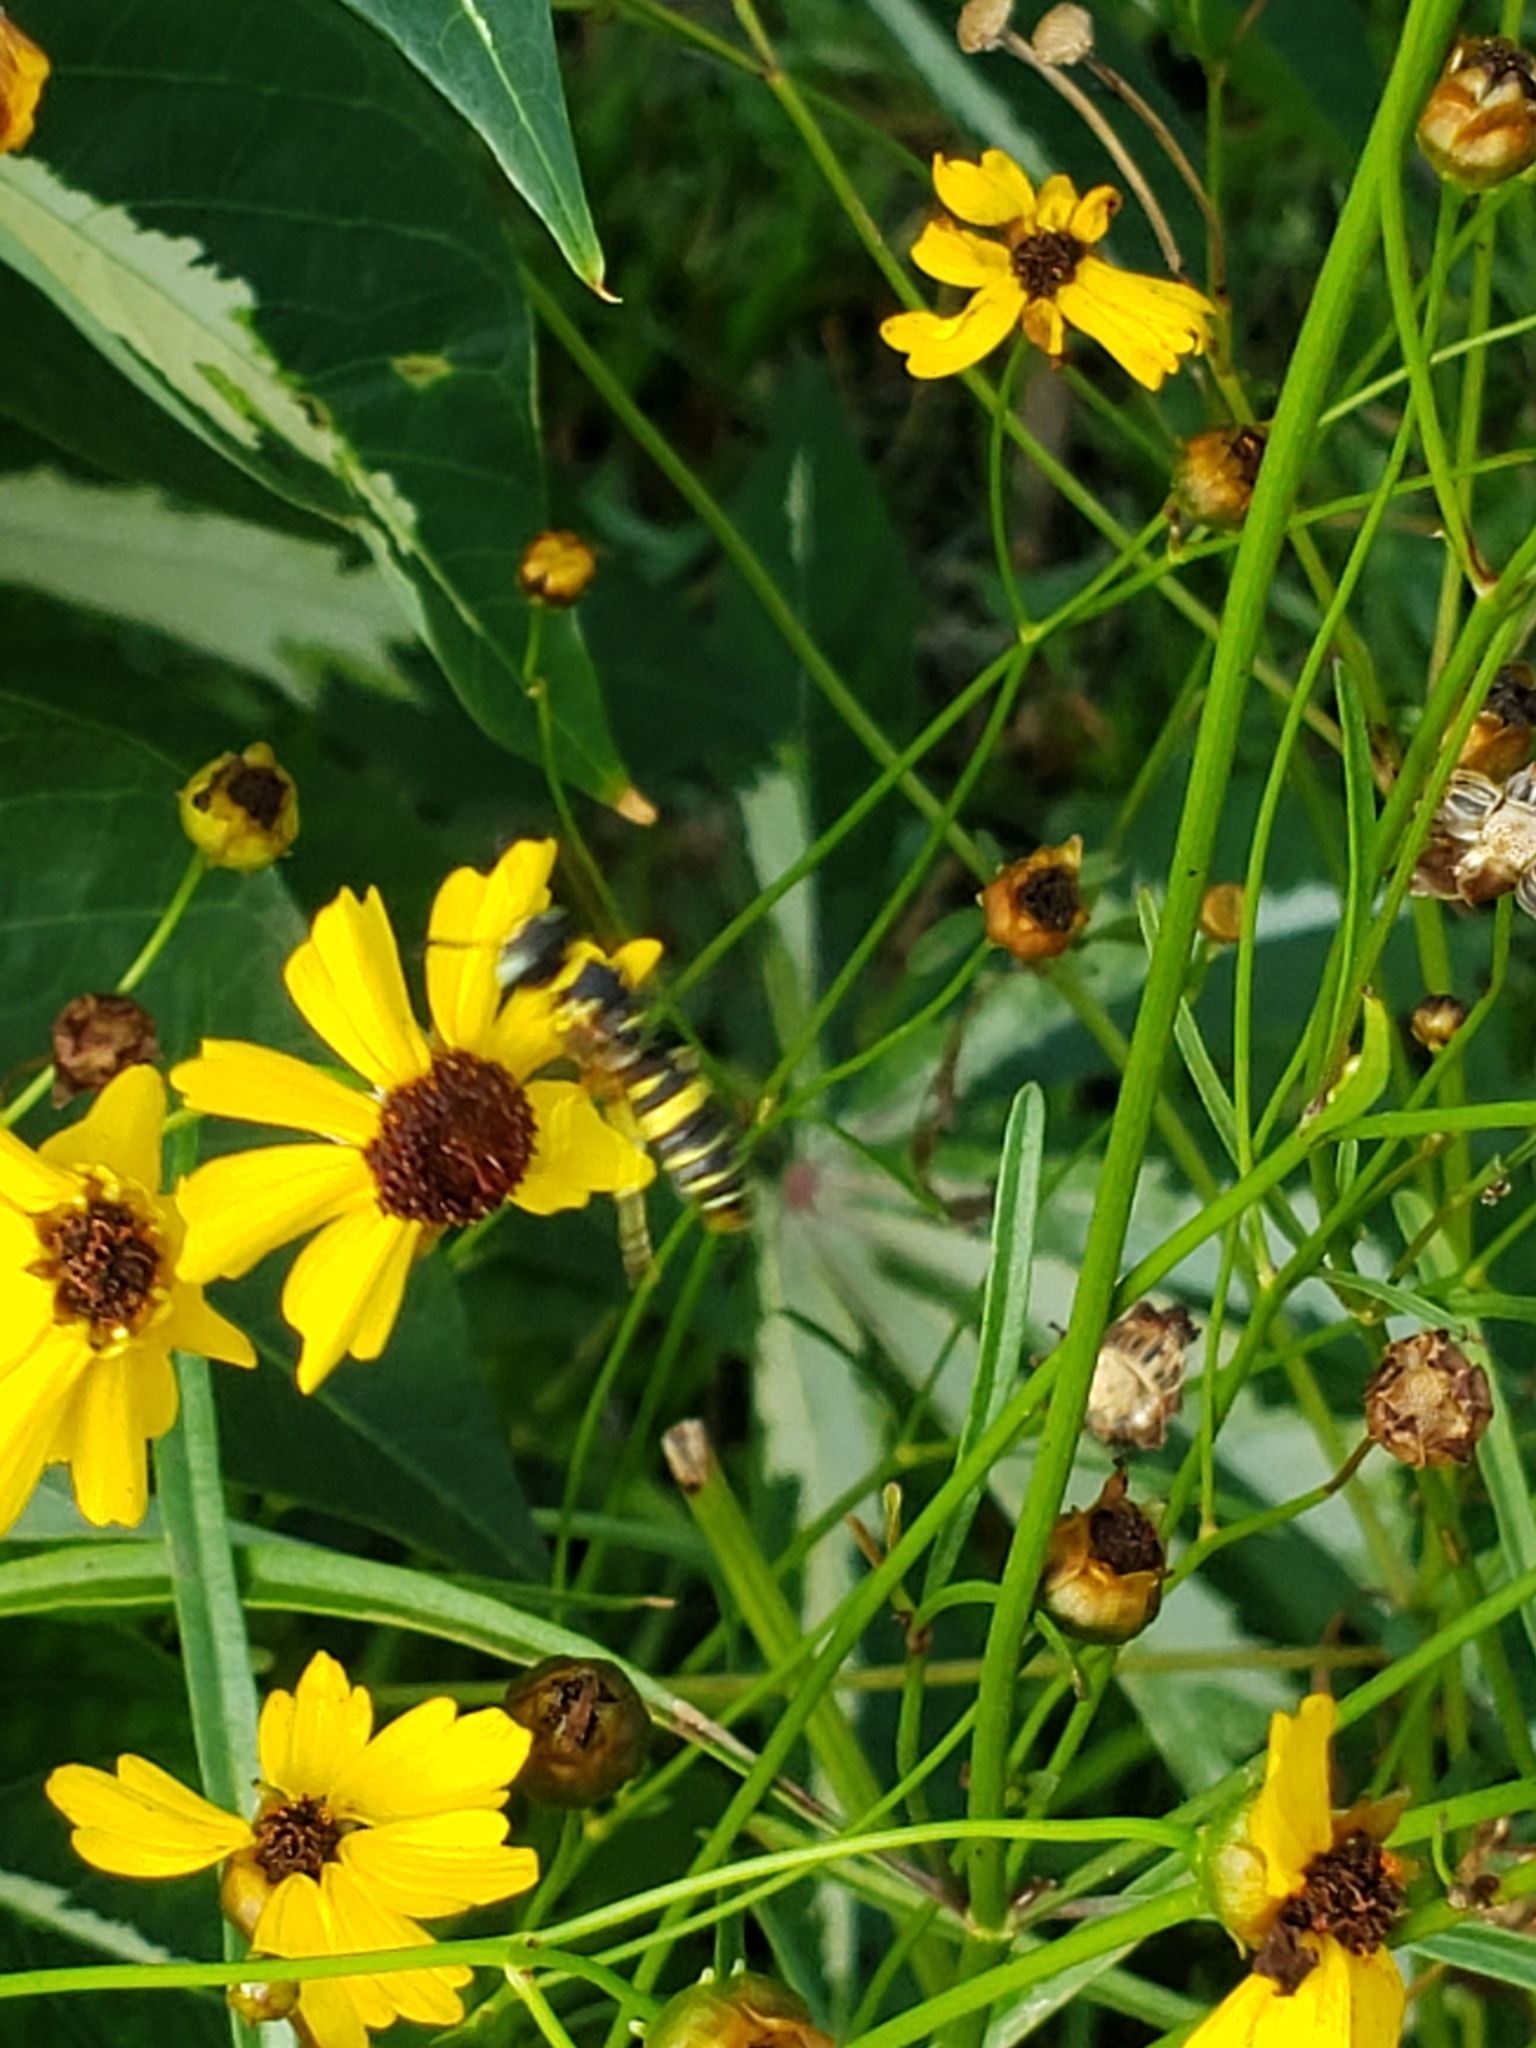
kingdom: Animalia
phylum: Arthropoda
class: Insecta
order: Hymenoptera
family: Crabronidae
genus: Philanthus
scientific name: Philanthus ventilabris
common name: Bee-killer wasp
